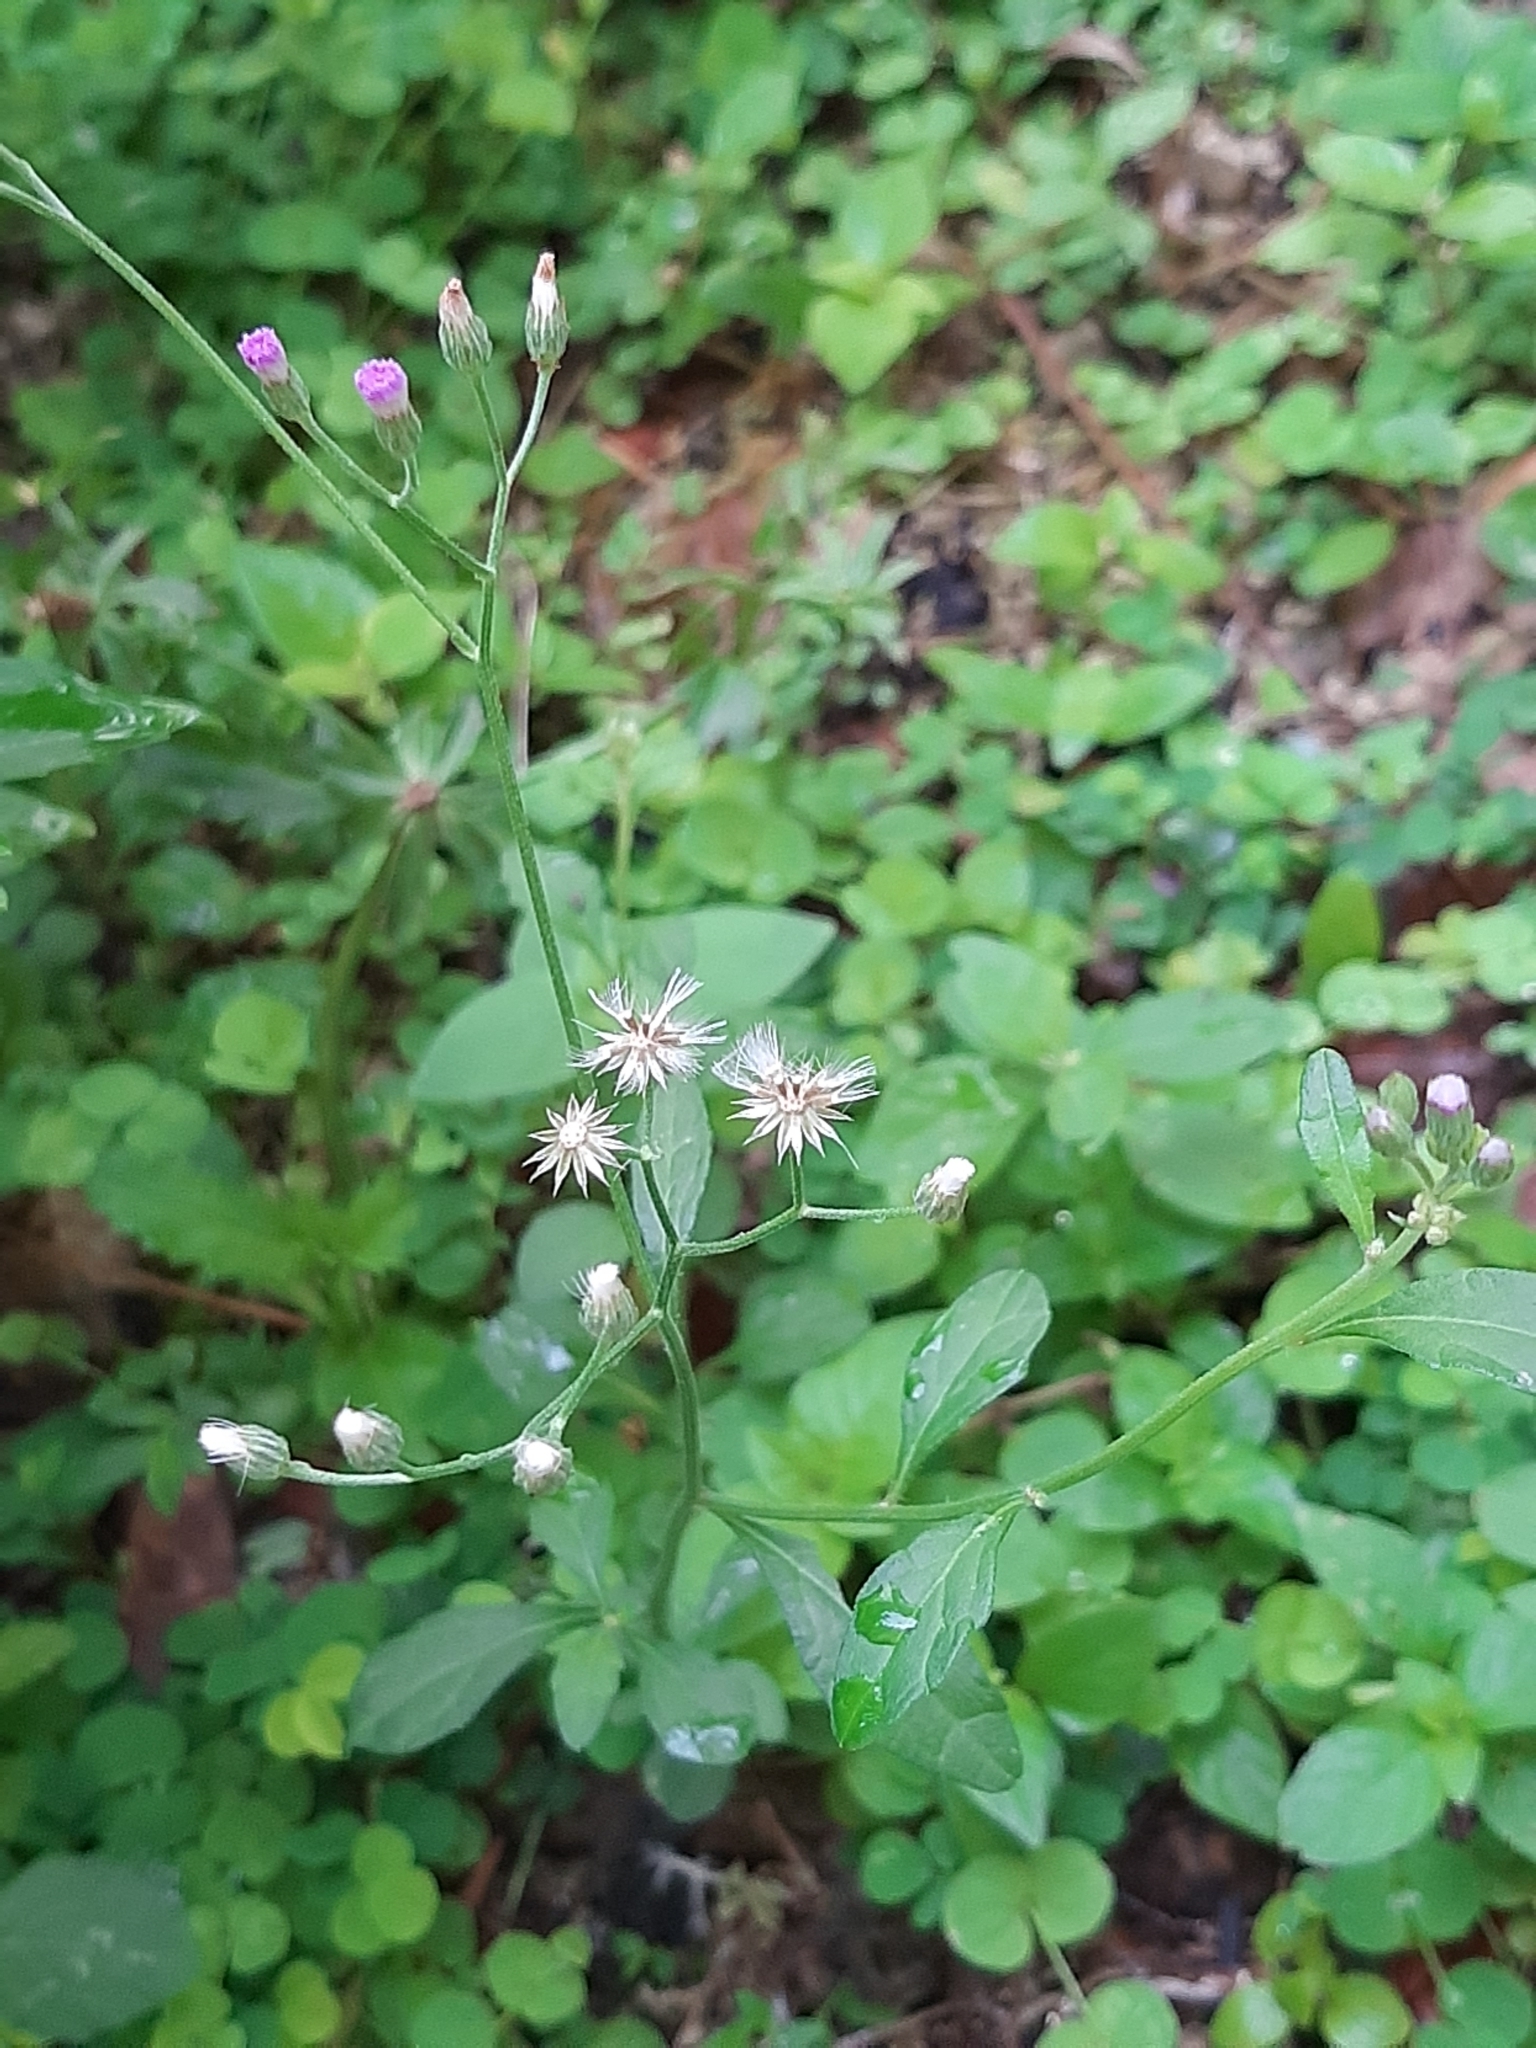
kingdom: Plantae
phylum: Tracheophyta
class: Magnoliopsida
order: Asterales
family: Asteraceae
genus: Cyanthillium
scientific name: Cyanthillium cinereum
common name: Little ironweed
